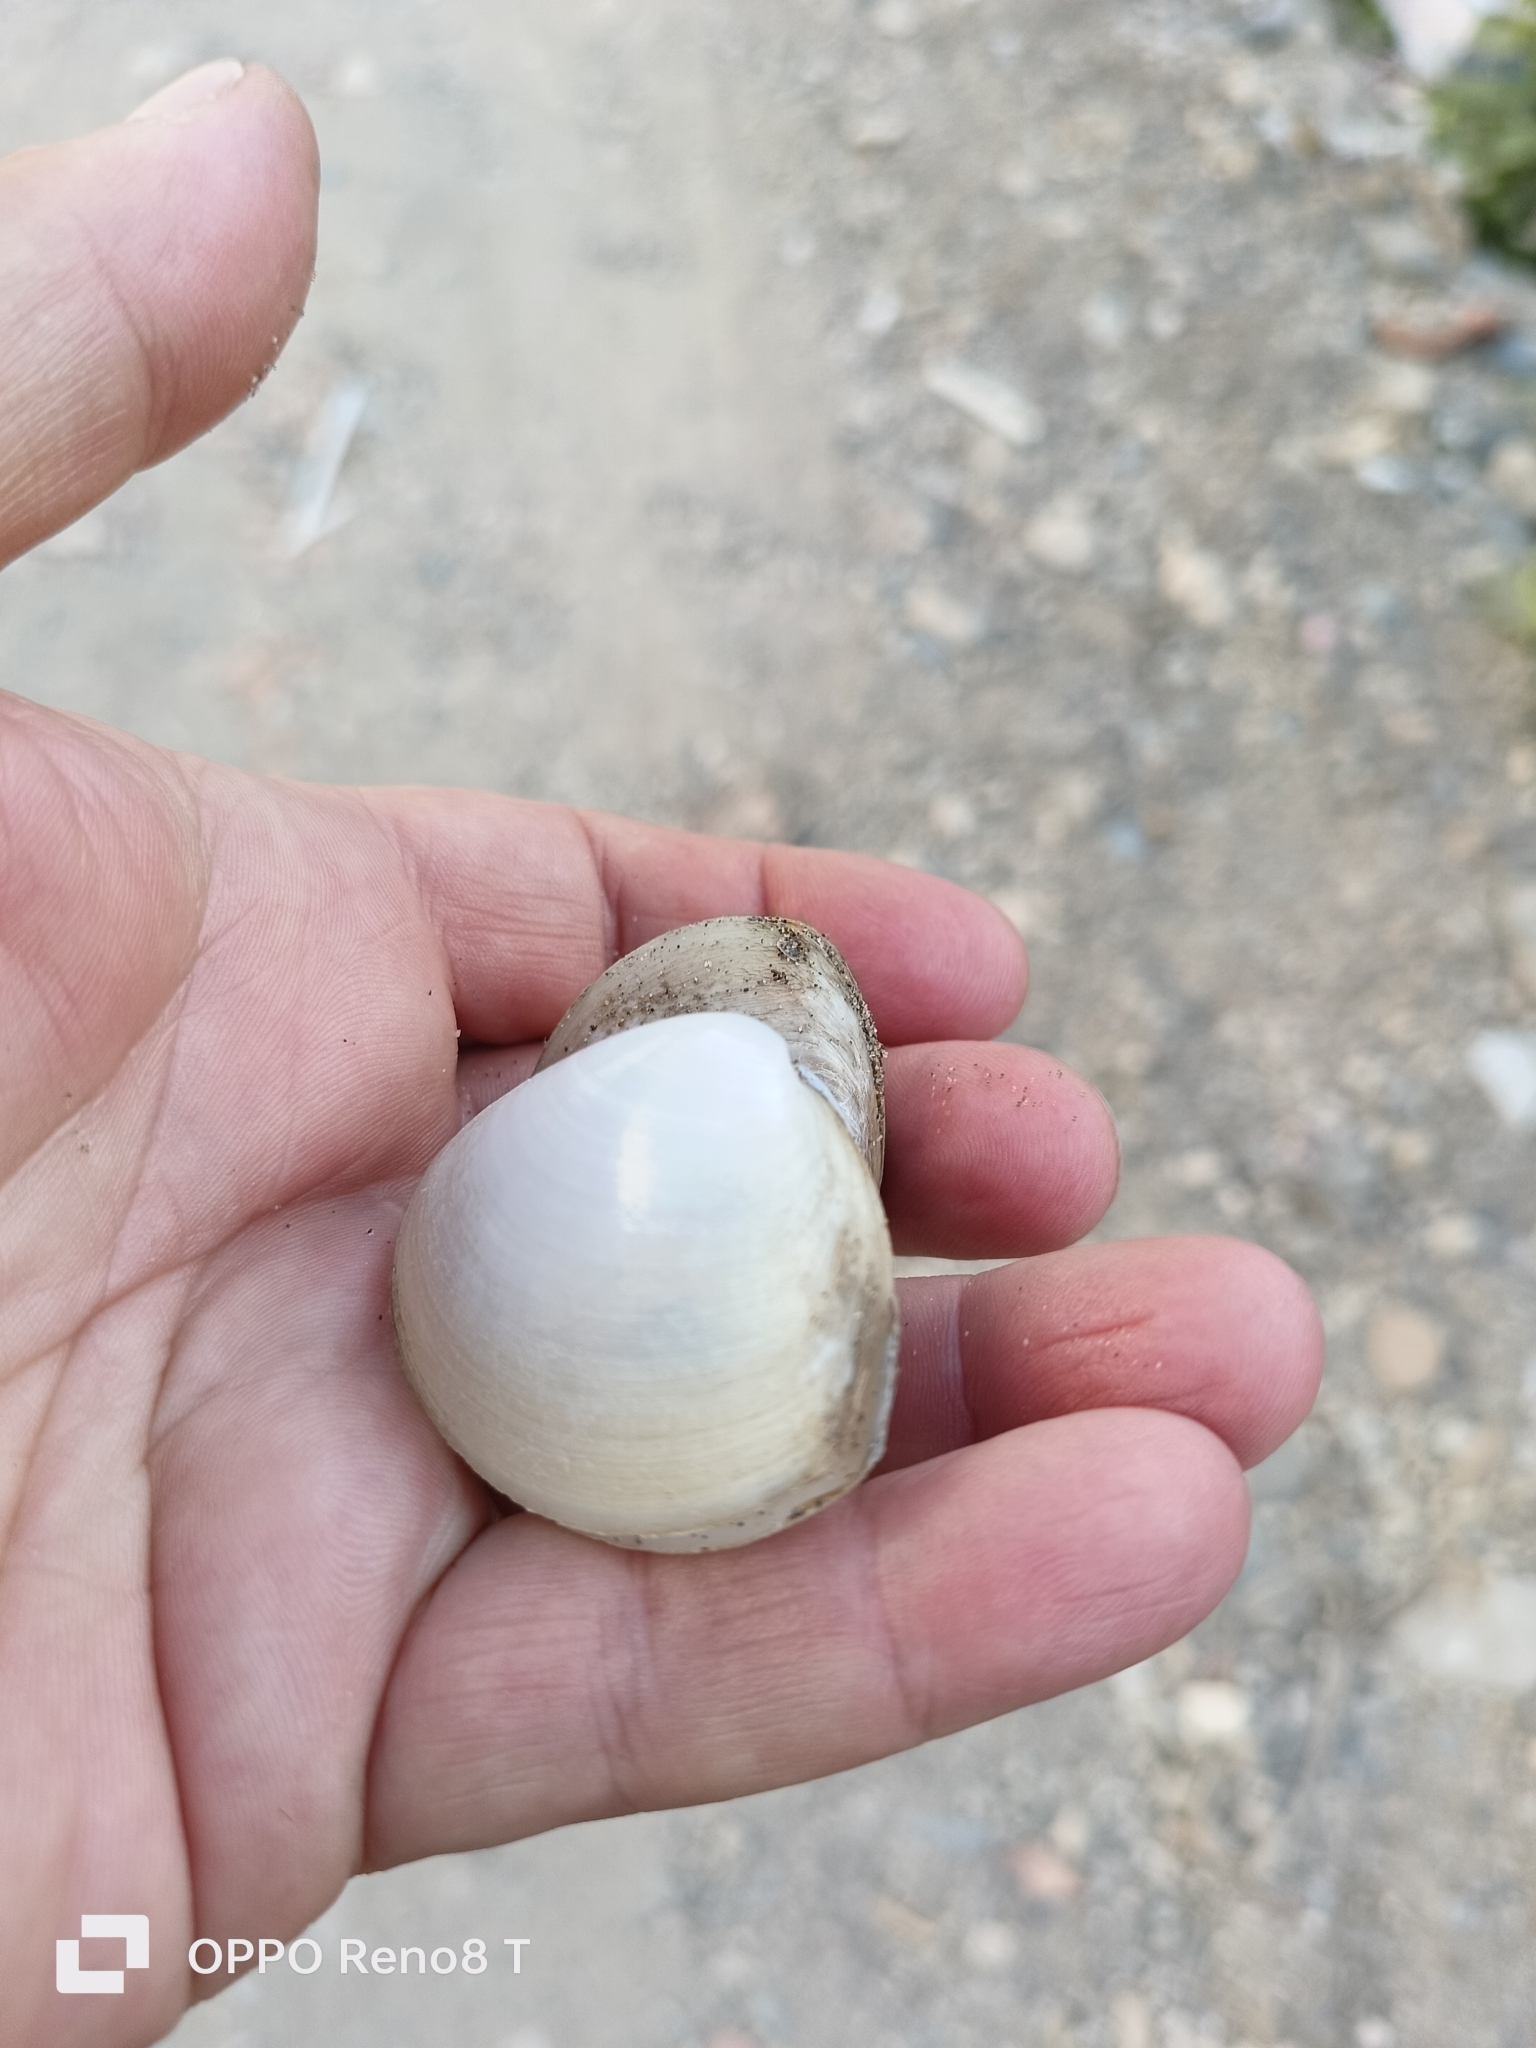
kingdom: Animalia
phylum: Mollusca
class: Bivalvia
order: Venerida
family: Mactridae
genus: Mactra
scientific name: Mactra stultorum
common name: Rayed trough shell
